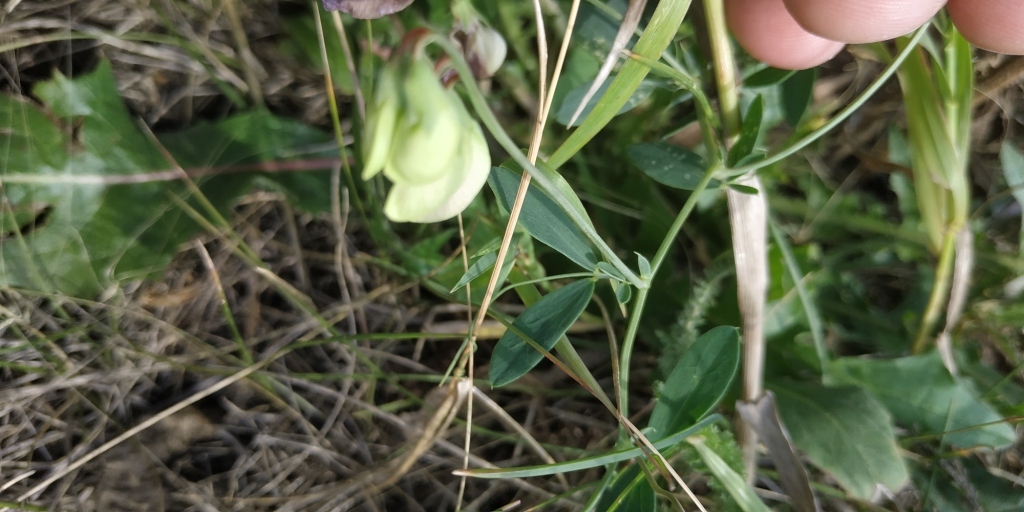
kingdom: Plantae
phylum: Tracheophyta
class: Magnoliopsida
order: Fabales
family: Fabaceae
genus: Lathyrus
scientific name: Lathyrus tuberosus
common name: Tuberous pea
